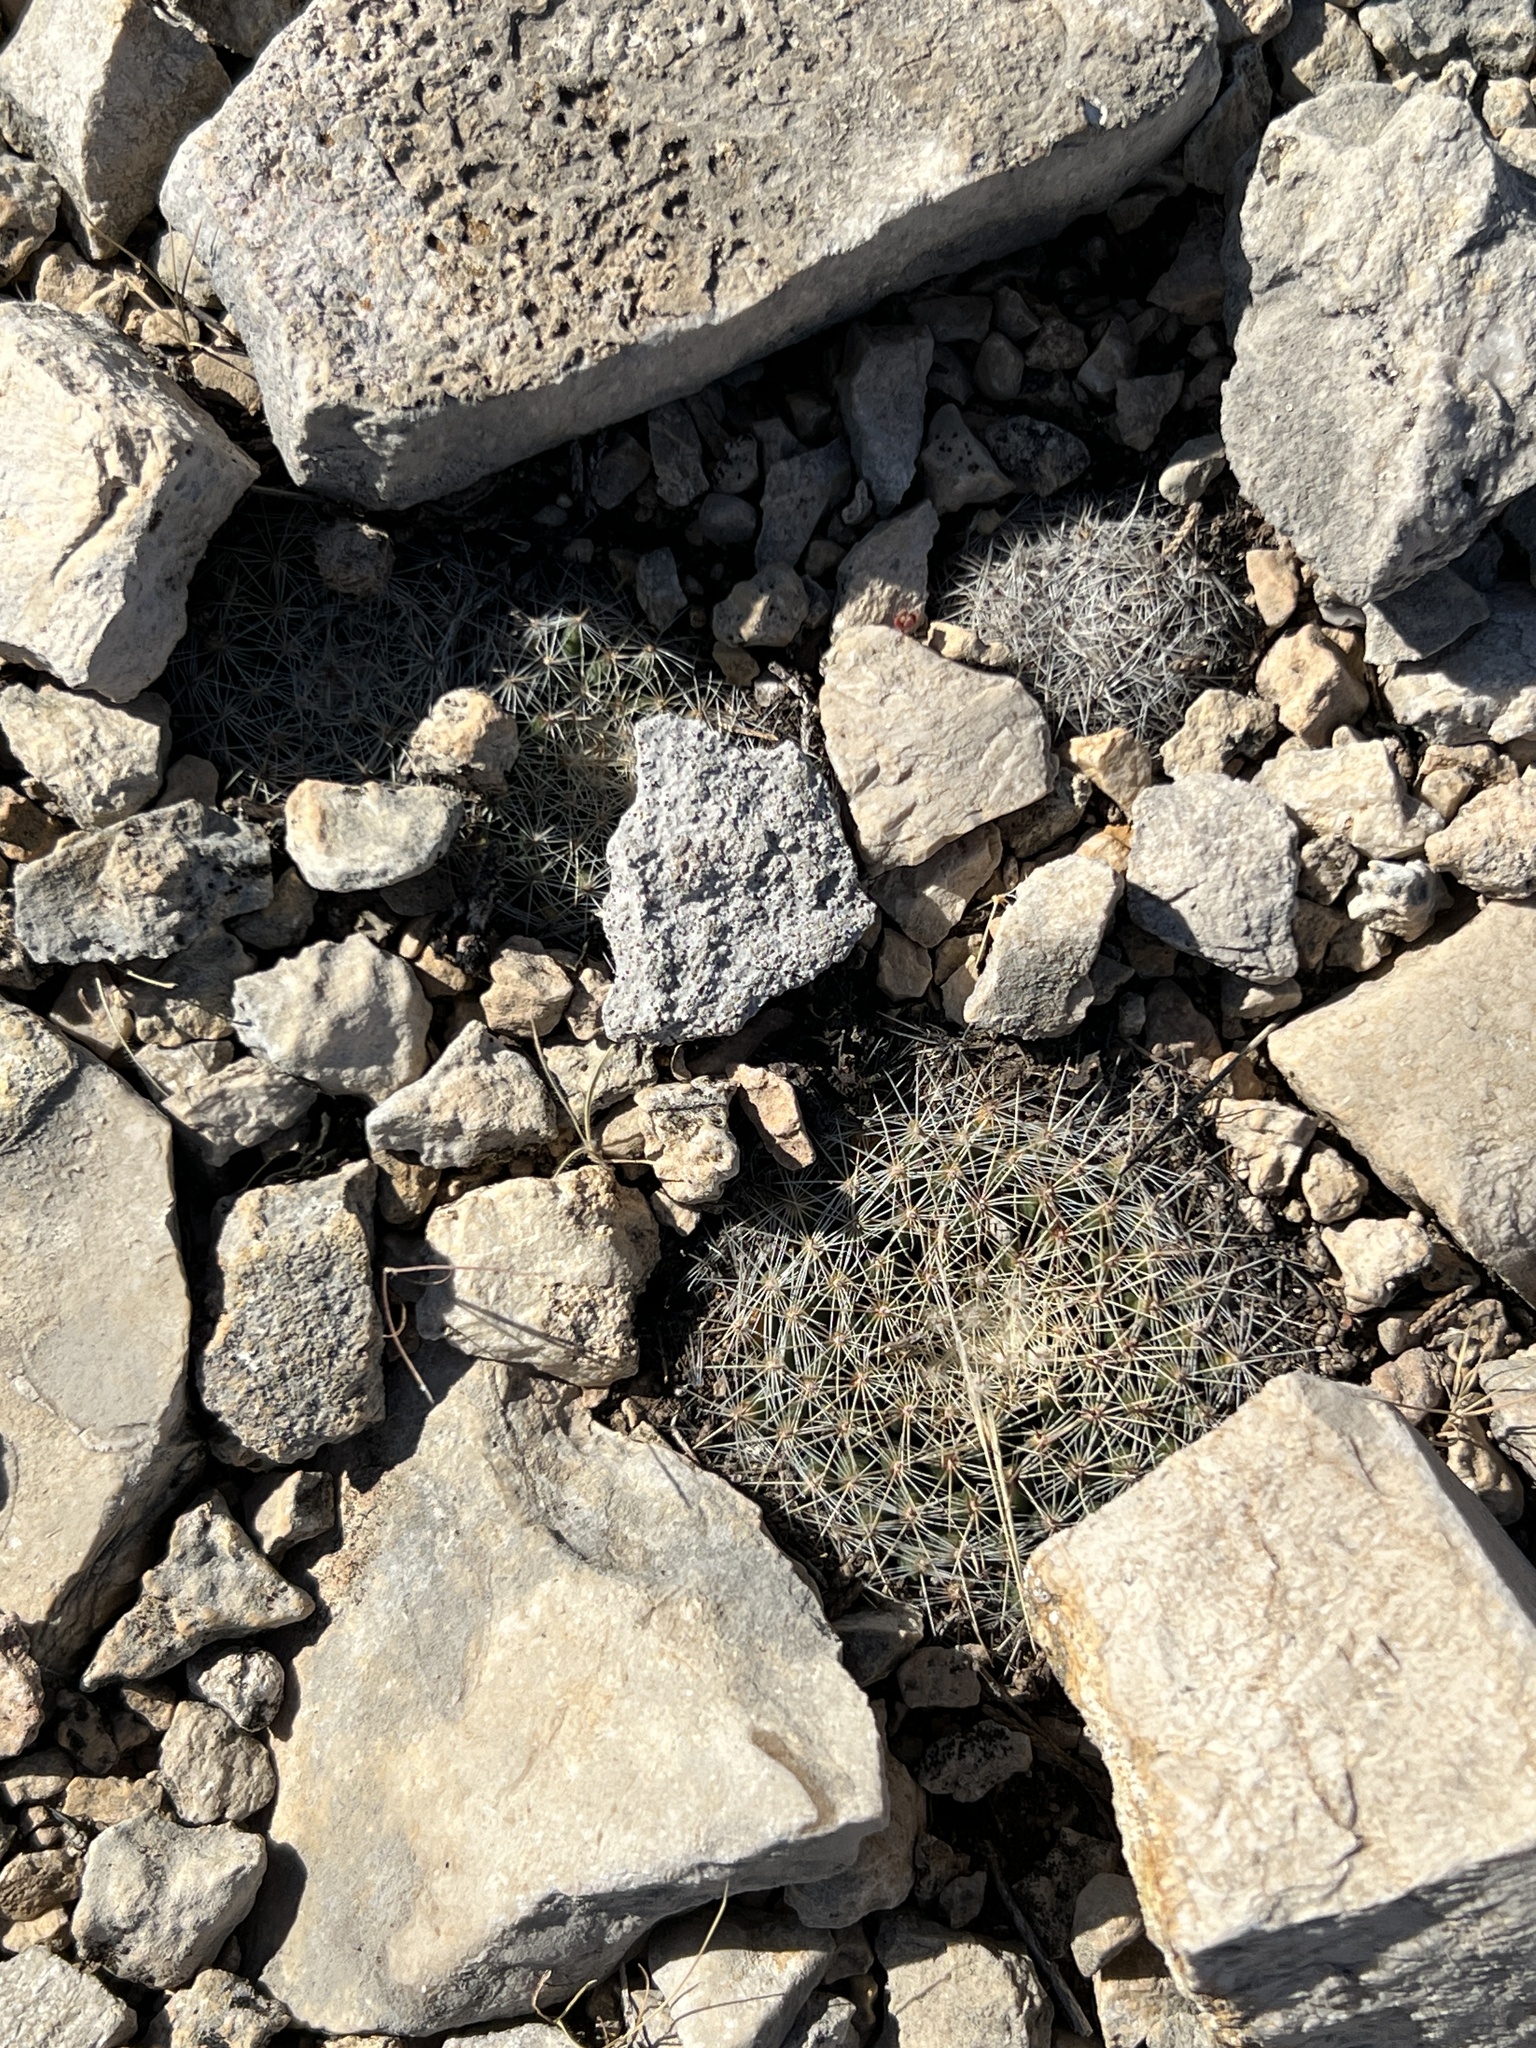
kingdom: Plantae
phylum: Tracheophyta
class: Magnoliopsida
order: Caryophyllales
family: Cactaceae
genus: Mammillaria
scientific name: Mammillaria heyderi
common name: Little nipple cactus
